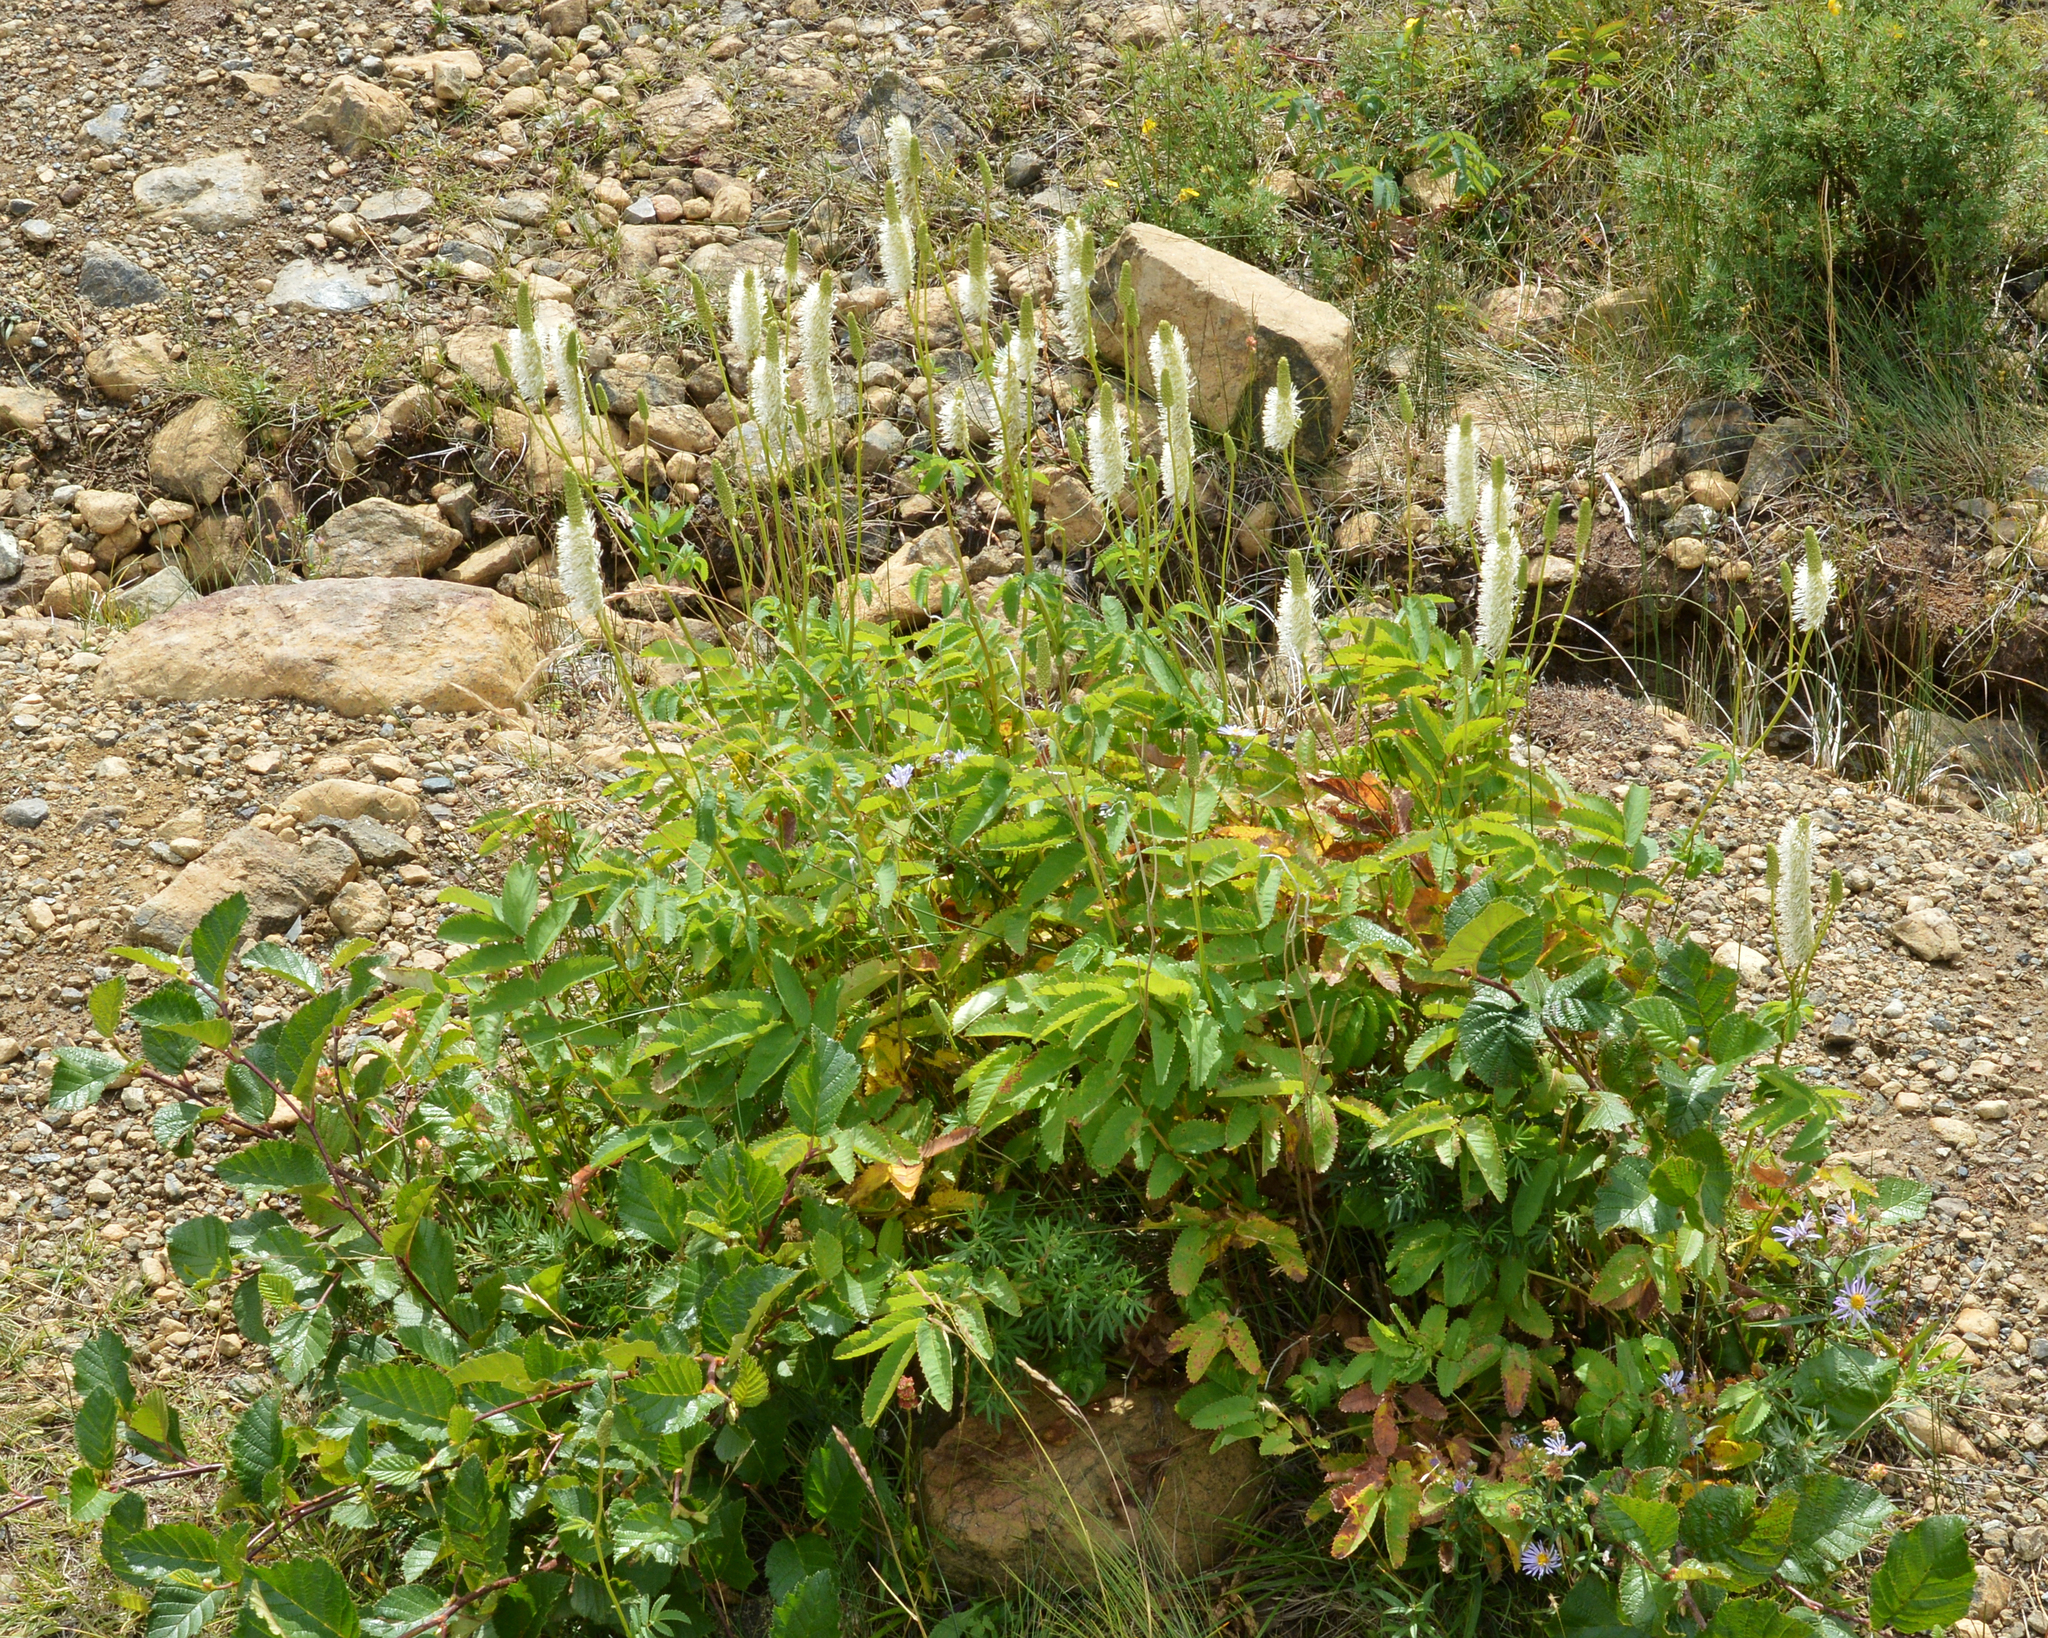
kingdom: Plantae
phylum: Tracheophyta
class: Magnoliopsida
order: Rosales
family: Rosaceae
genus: Sanguisorba
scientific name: Sanguisorba canadensis
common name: White burnet
